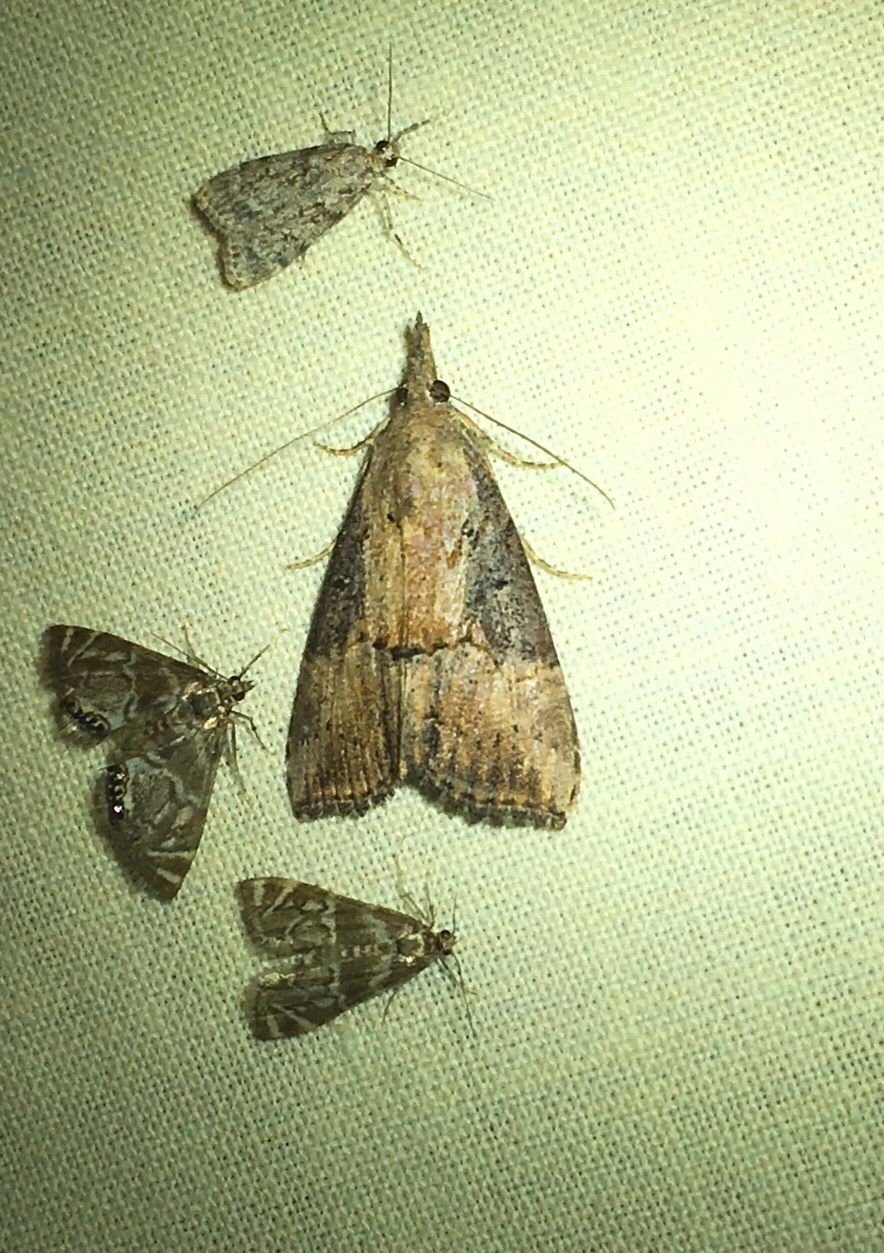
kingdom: Animalia
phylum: Arthropoda
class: Insecta
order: Lepidoptera
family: Erebidae
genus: Hypena
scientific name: Hypena scabra
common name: Green cloverworm
